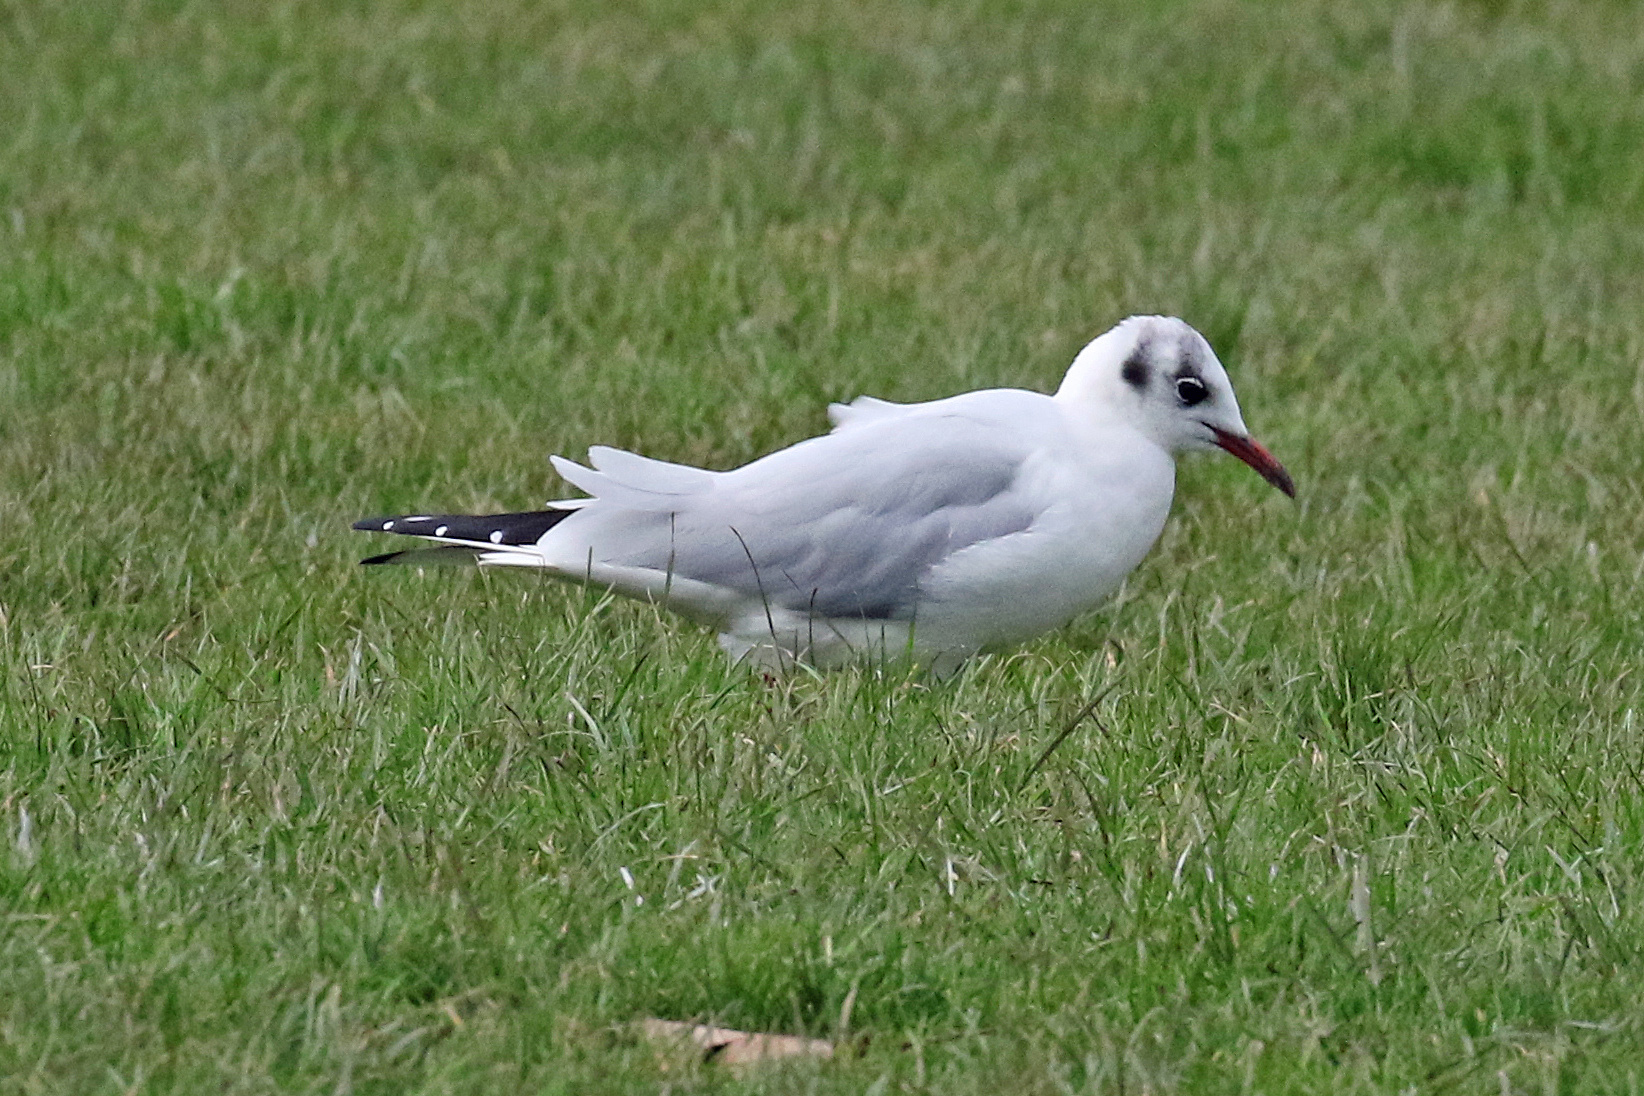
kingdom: Animalia
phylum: Chordata
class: Aves
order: Charadriiformes
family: Laridae
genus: Chroicocephalus
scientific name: Chroicocephalus ridibundus
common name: Black-headed gull
